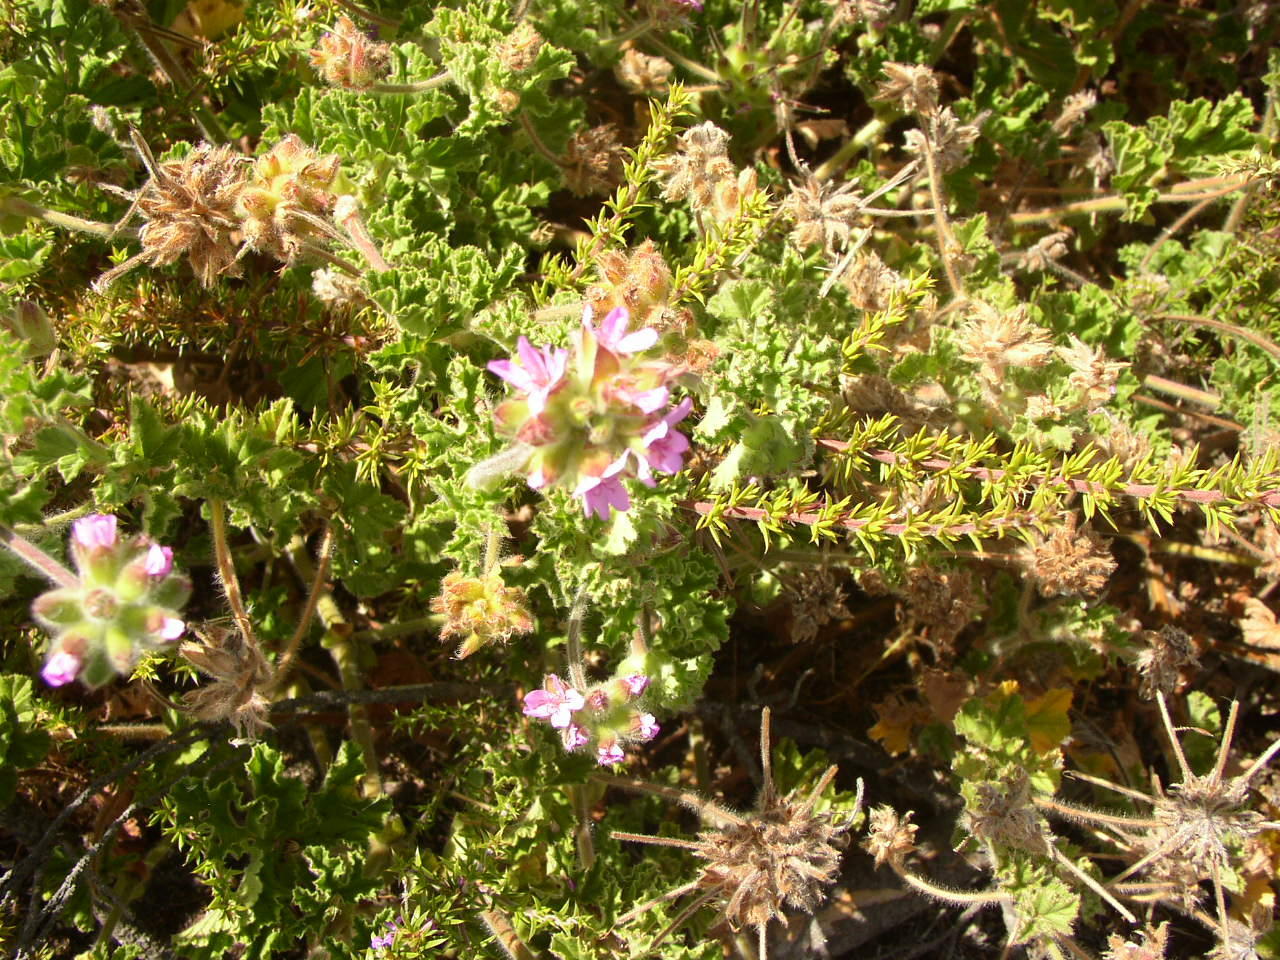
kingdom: Plantae
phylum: Tracheophyta
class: Magnoliopsida
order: Geraniales
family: Geraniaceae
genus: Pelargonium
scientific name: Pelargonium capitatum
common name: Rose scented geranium
